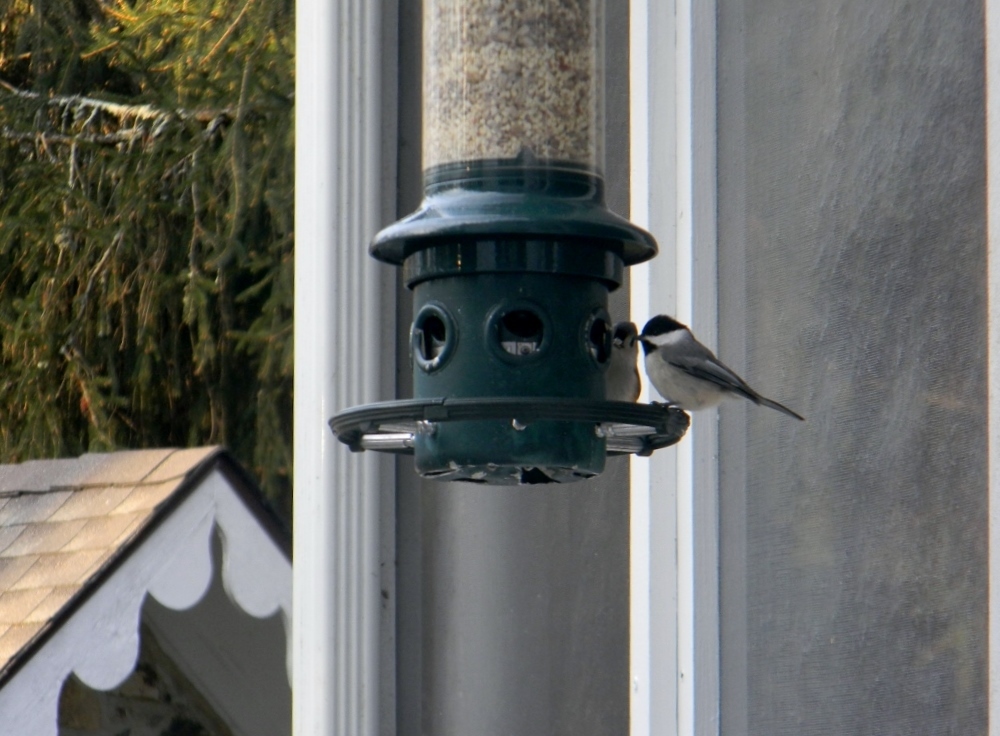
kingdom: Animalia
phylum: Chordata
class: Aves
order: Passeriformes
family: Paridae
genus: Poecile
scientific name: Poecile carolinensis
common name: Carolina chickadee
